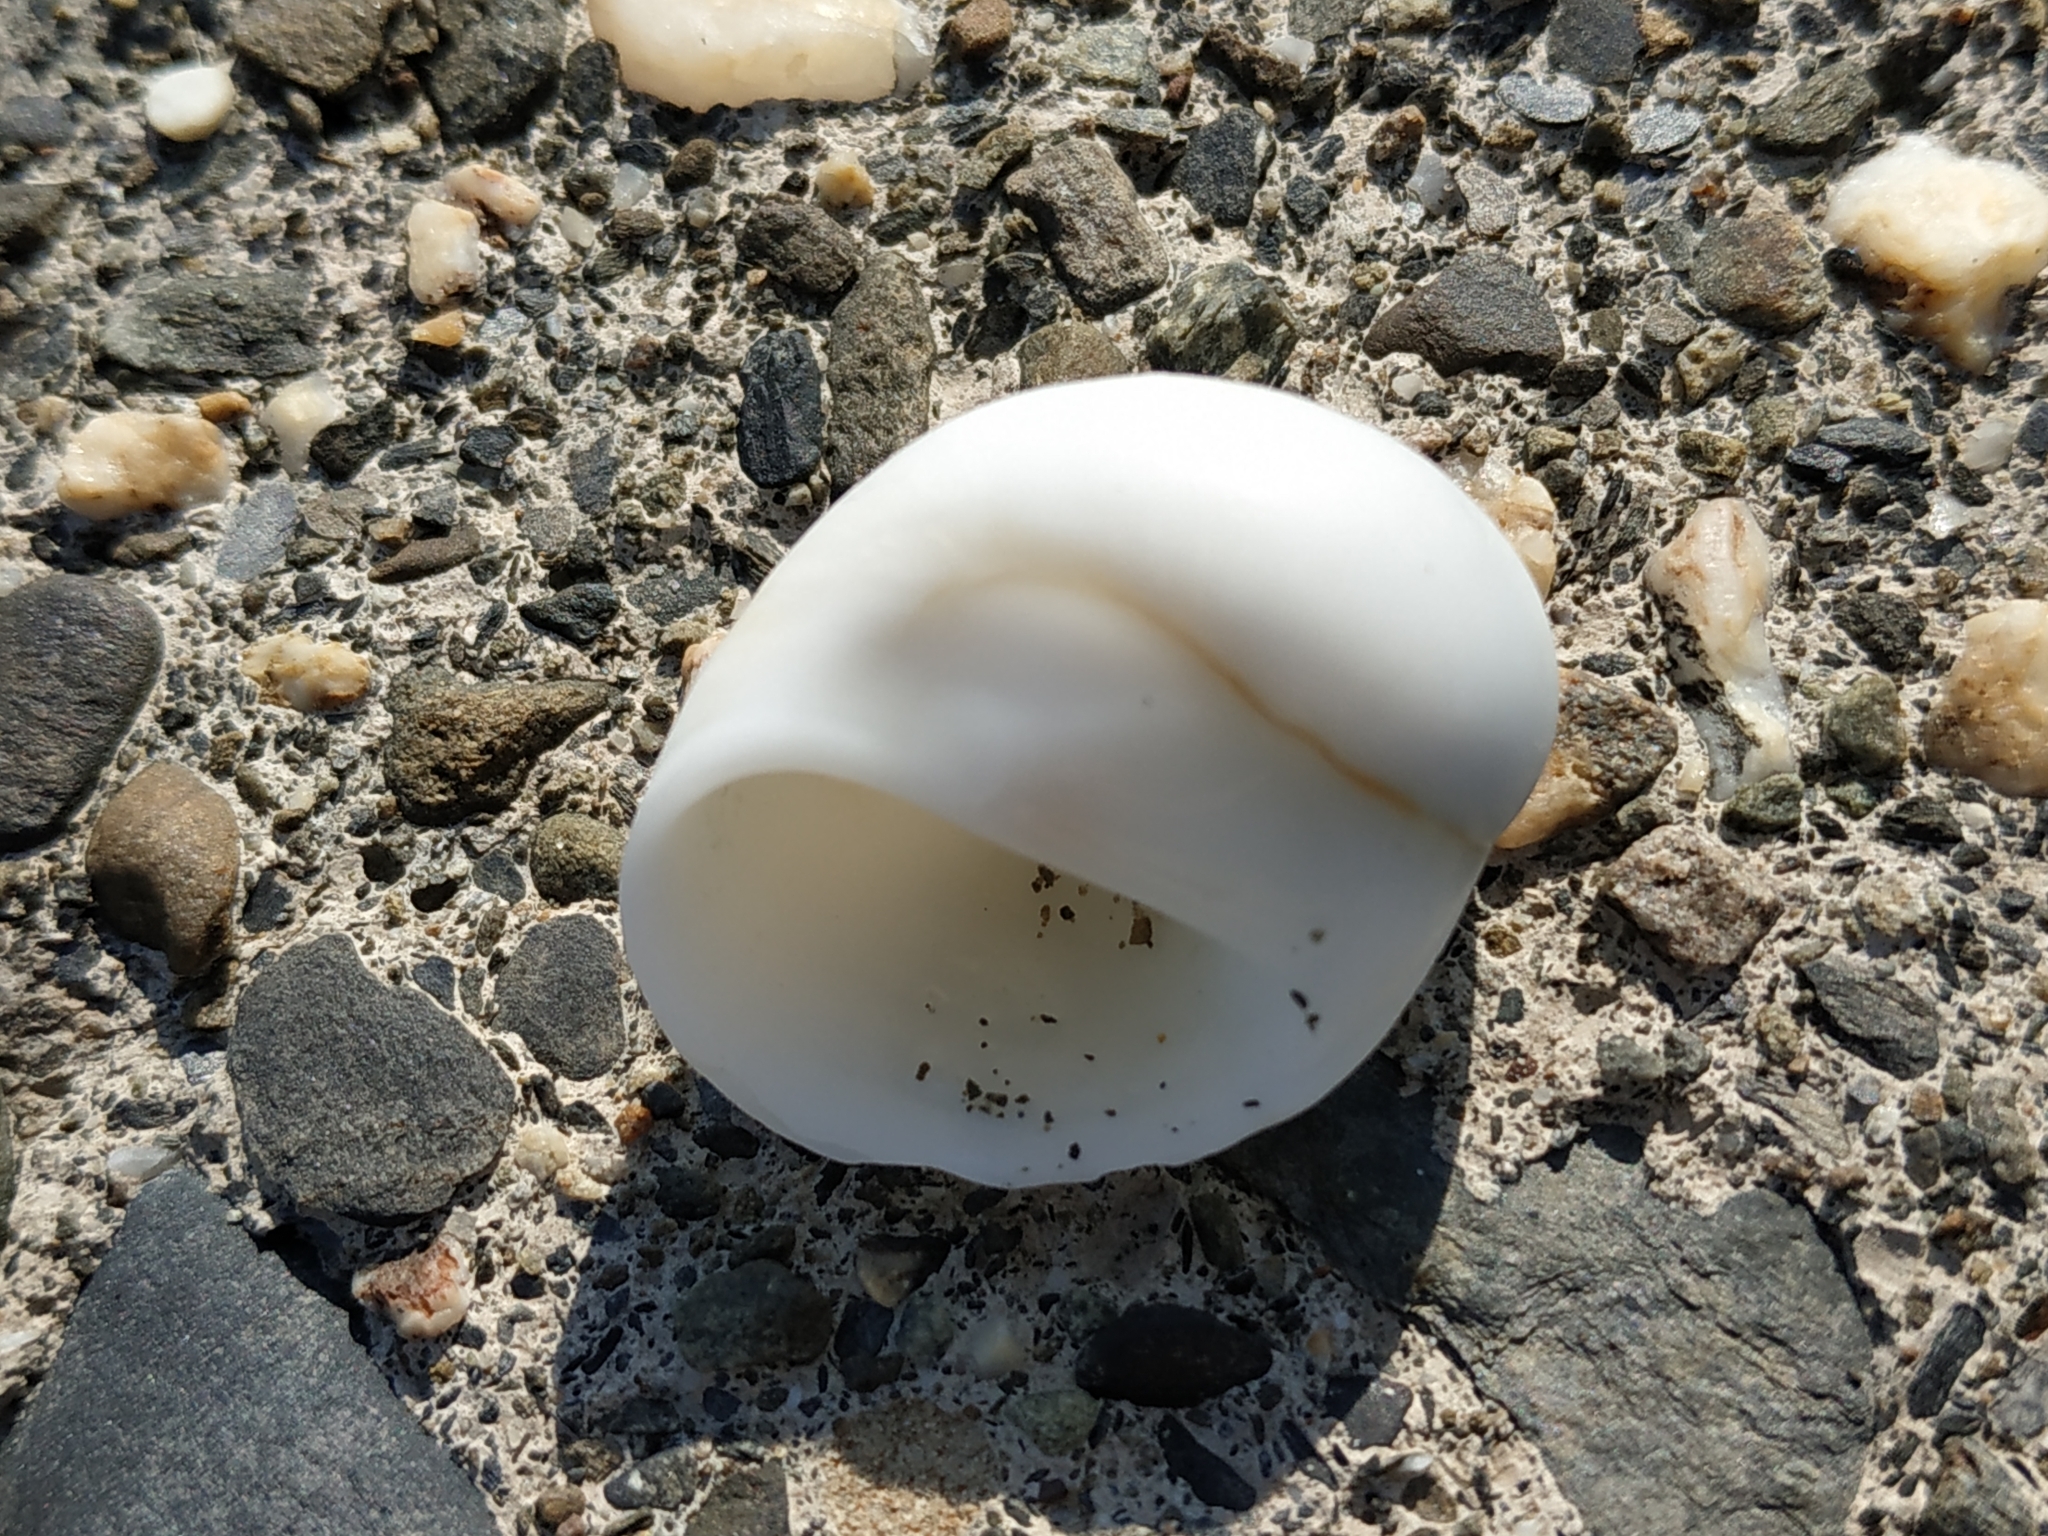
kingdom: Animalia
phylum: Mollusca
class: Gastropoda
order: Littorinimorpha
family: Naticidae
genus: Polinices
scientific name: Polinices mammilla
